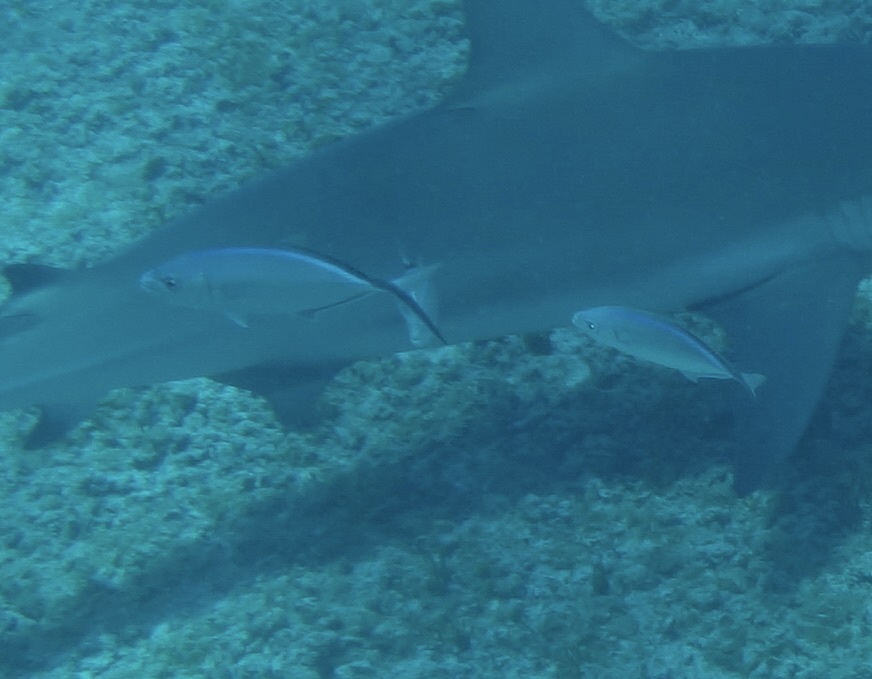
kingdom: Animalia
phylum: Chordata
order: Perciformes
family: Carangidae
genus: Caranx
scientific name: Caranx ruber
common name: Bar jack
